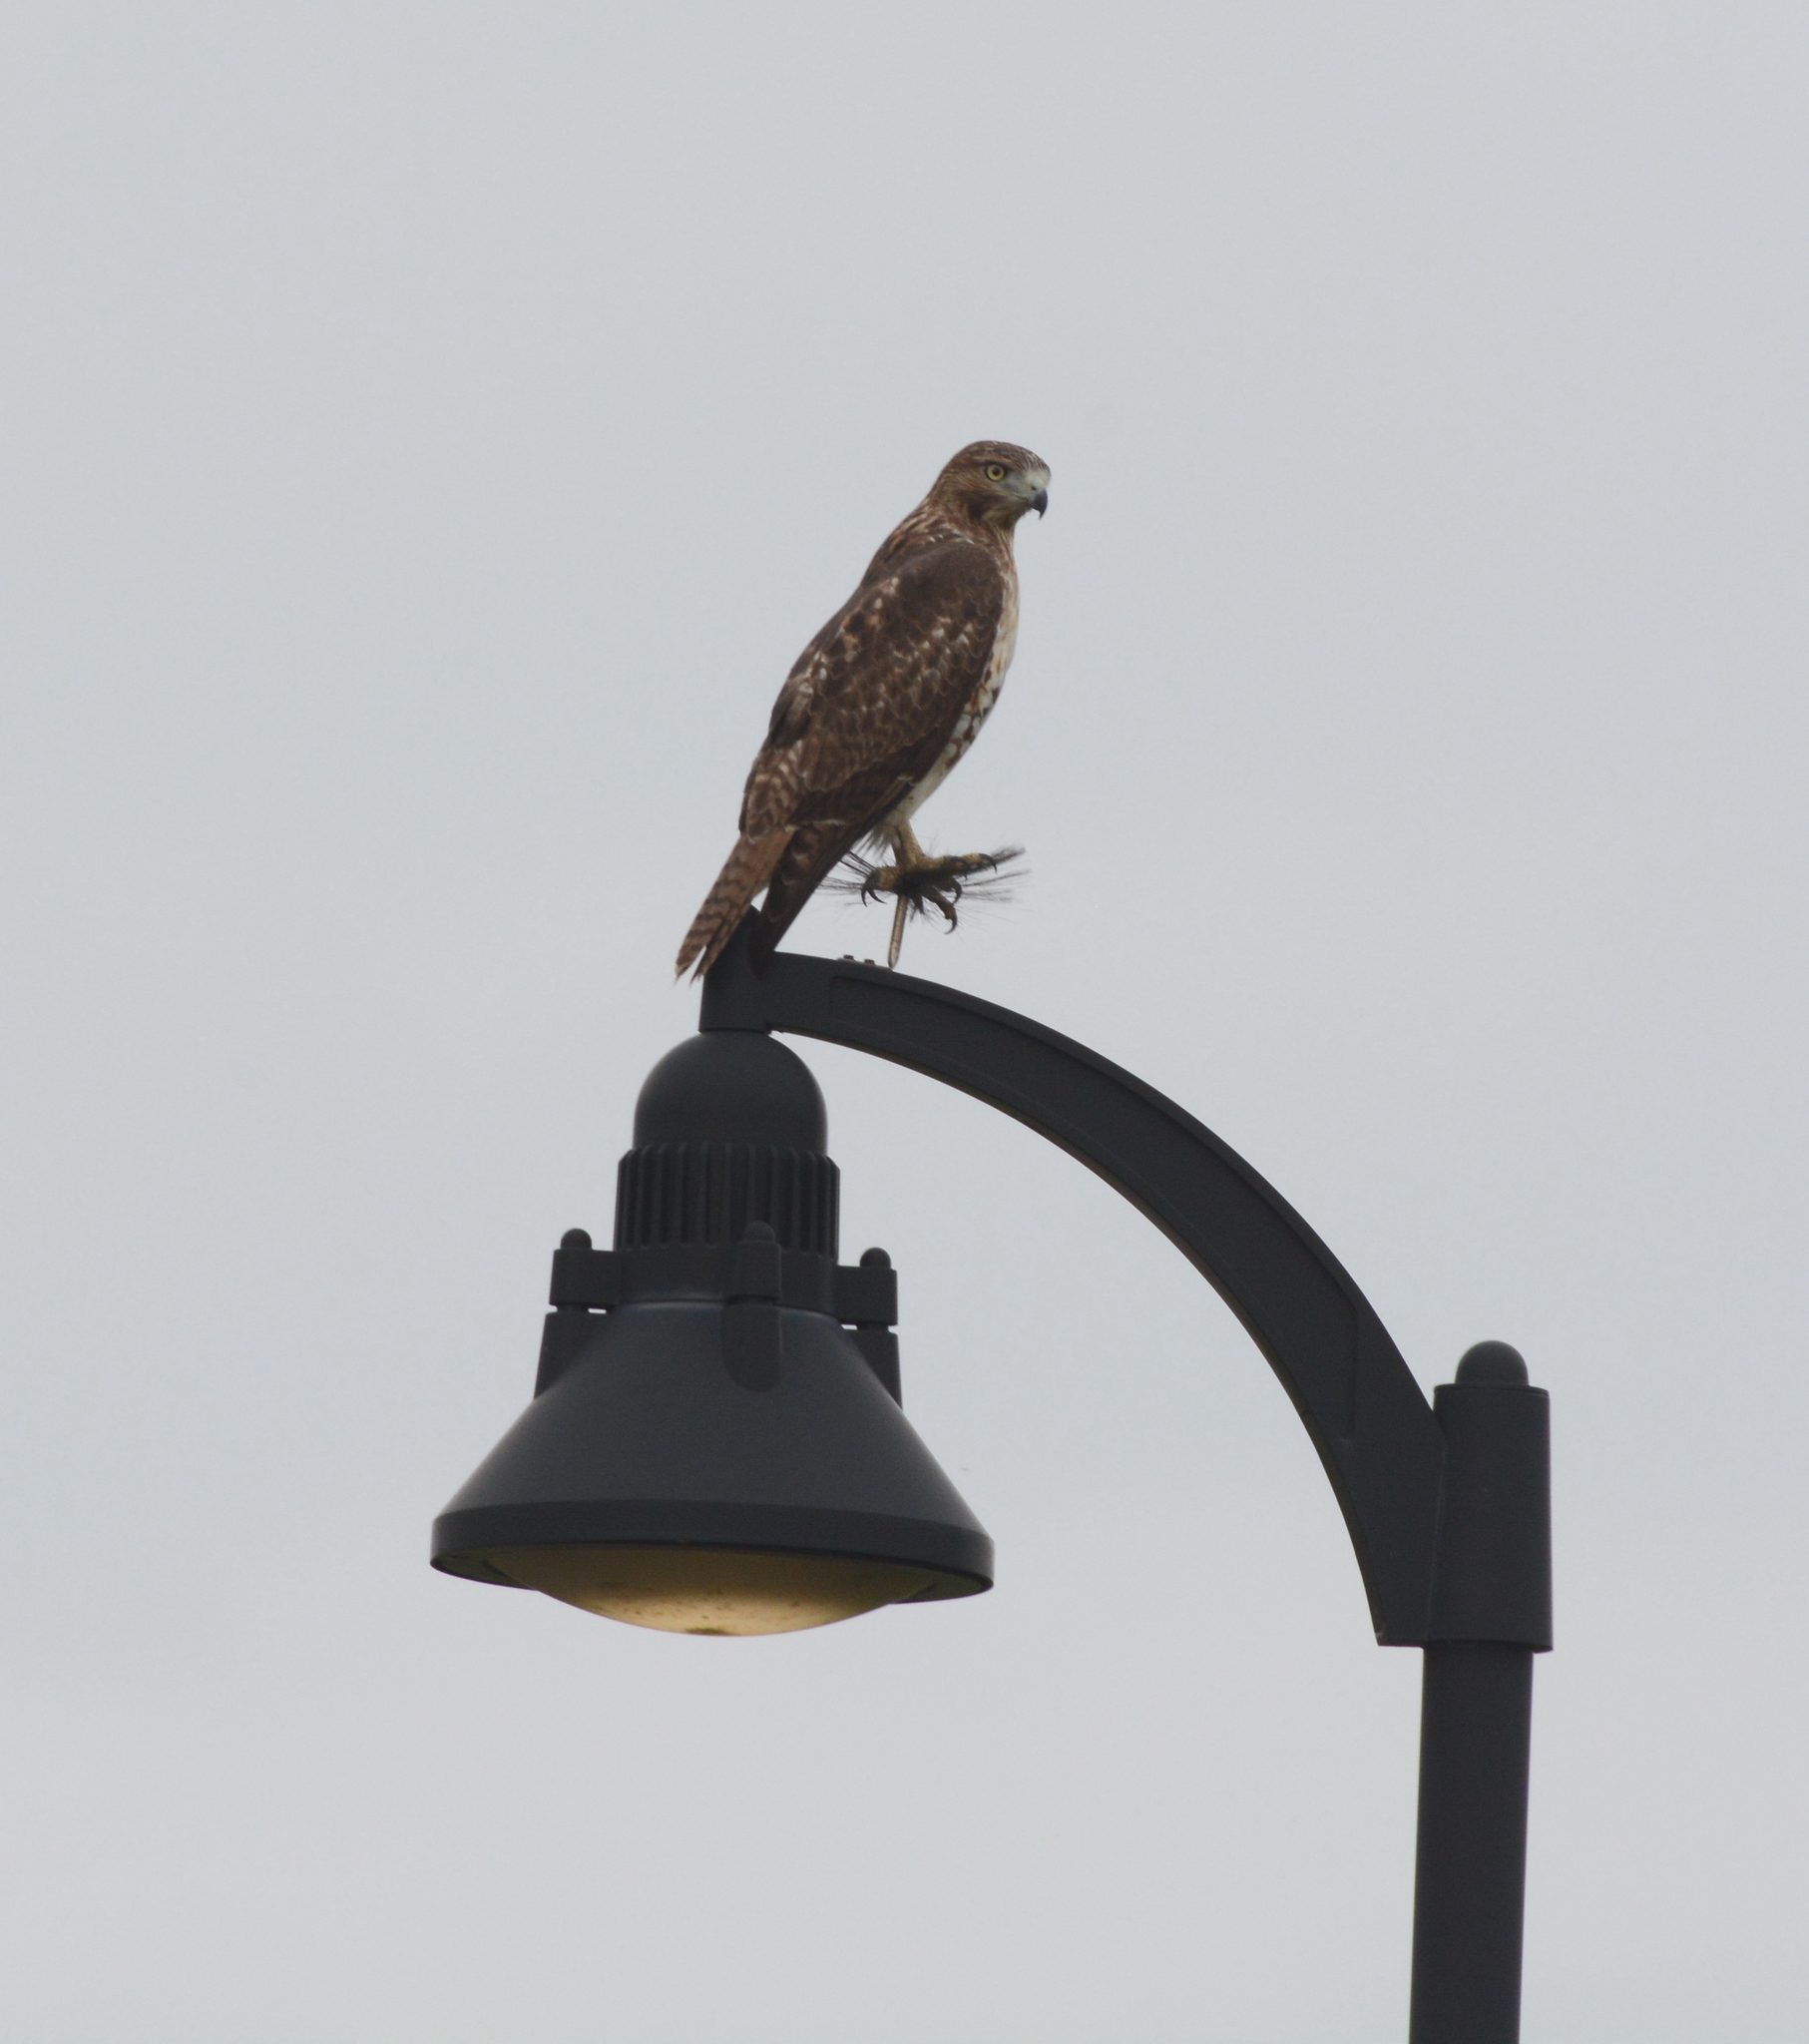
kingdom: Animalia
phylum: Chordata
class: Aves
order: Accipitriformes
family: Accipitridae
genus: Buteo
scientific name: Buteo jamaicensis
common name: Red-tailed hawk
